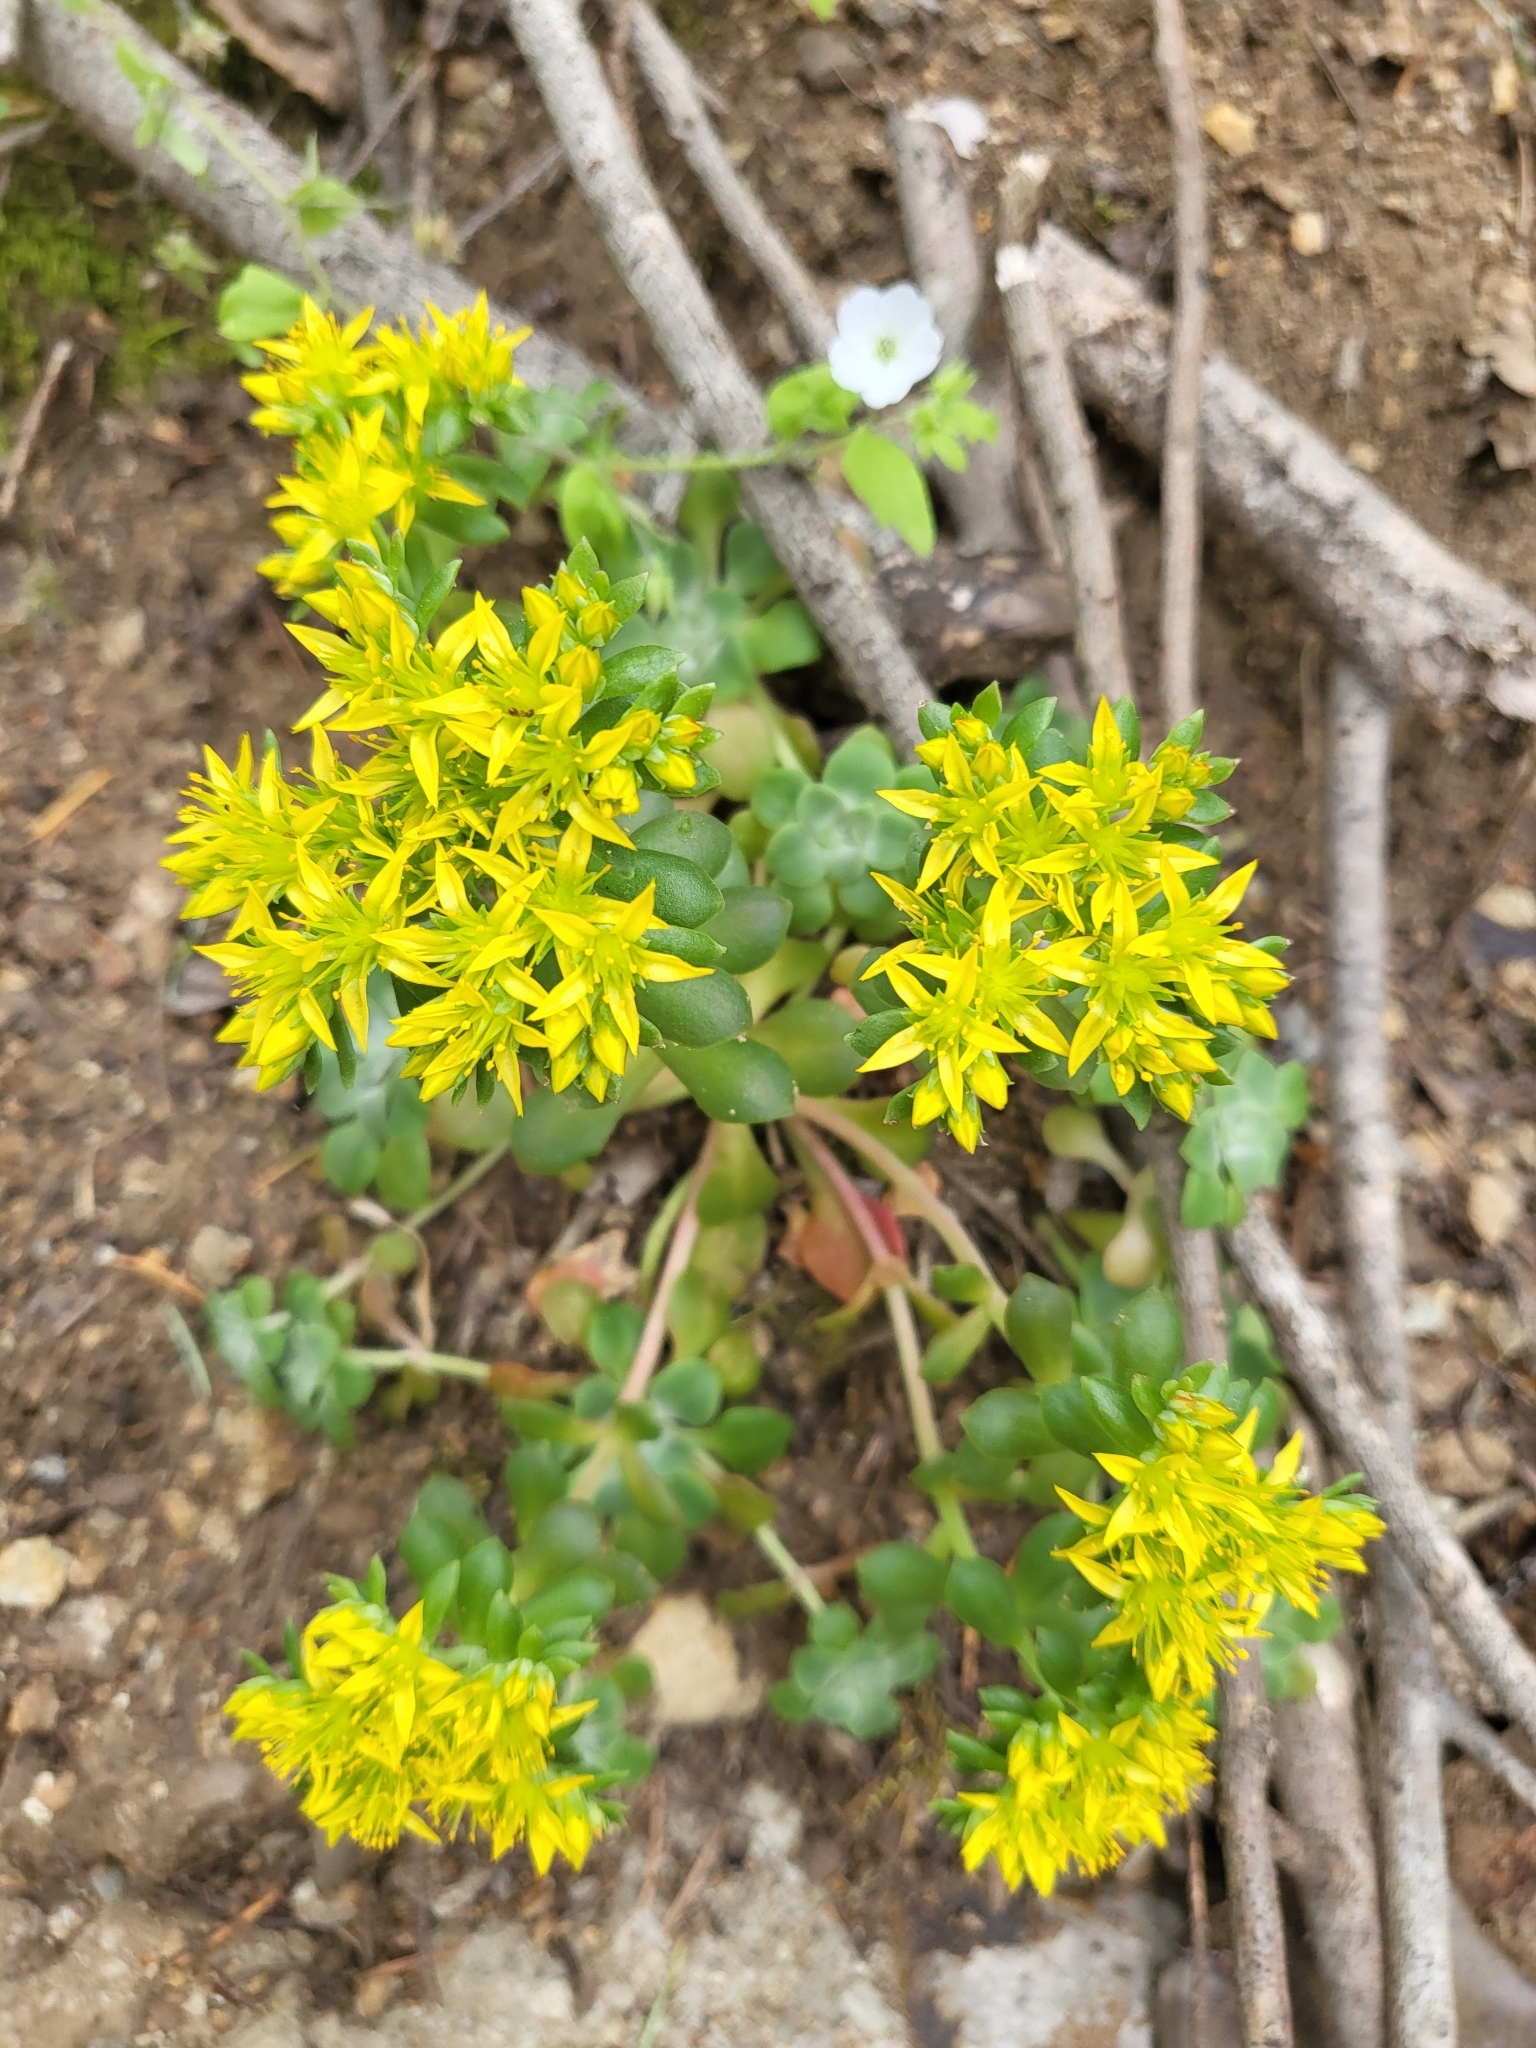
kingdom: Plantae
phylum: Tracheophyta
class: Magnoliopsida
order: Saxifragales
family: Crassulaceae
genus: Sedum
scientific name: Sedum spathulifolium
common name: Colorado stonecrop
